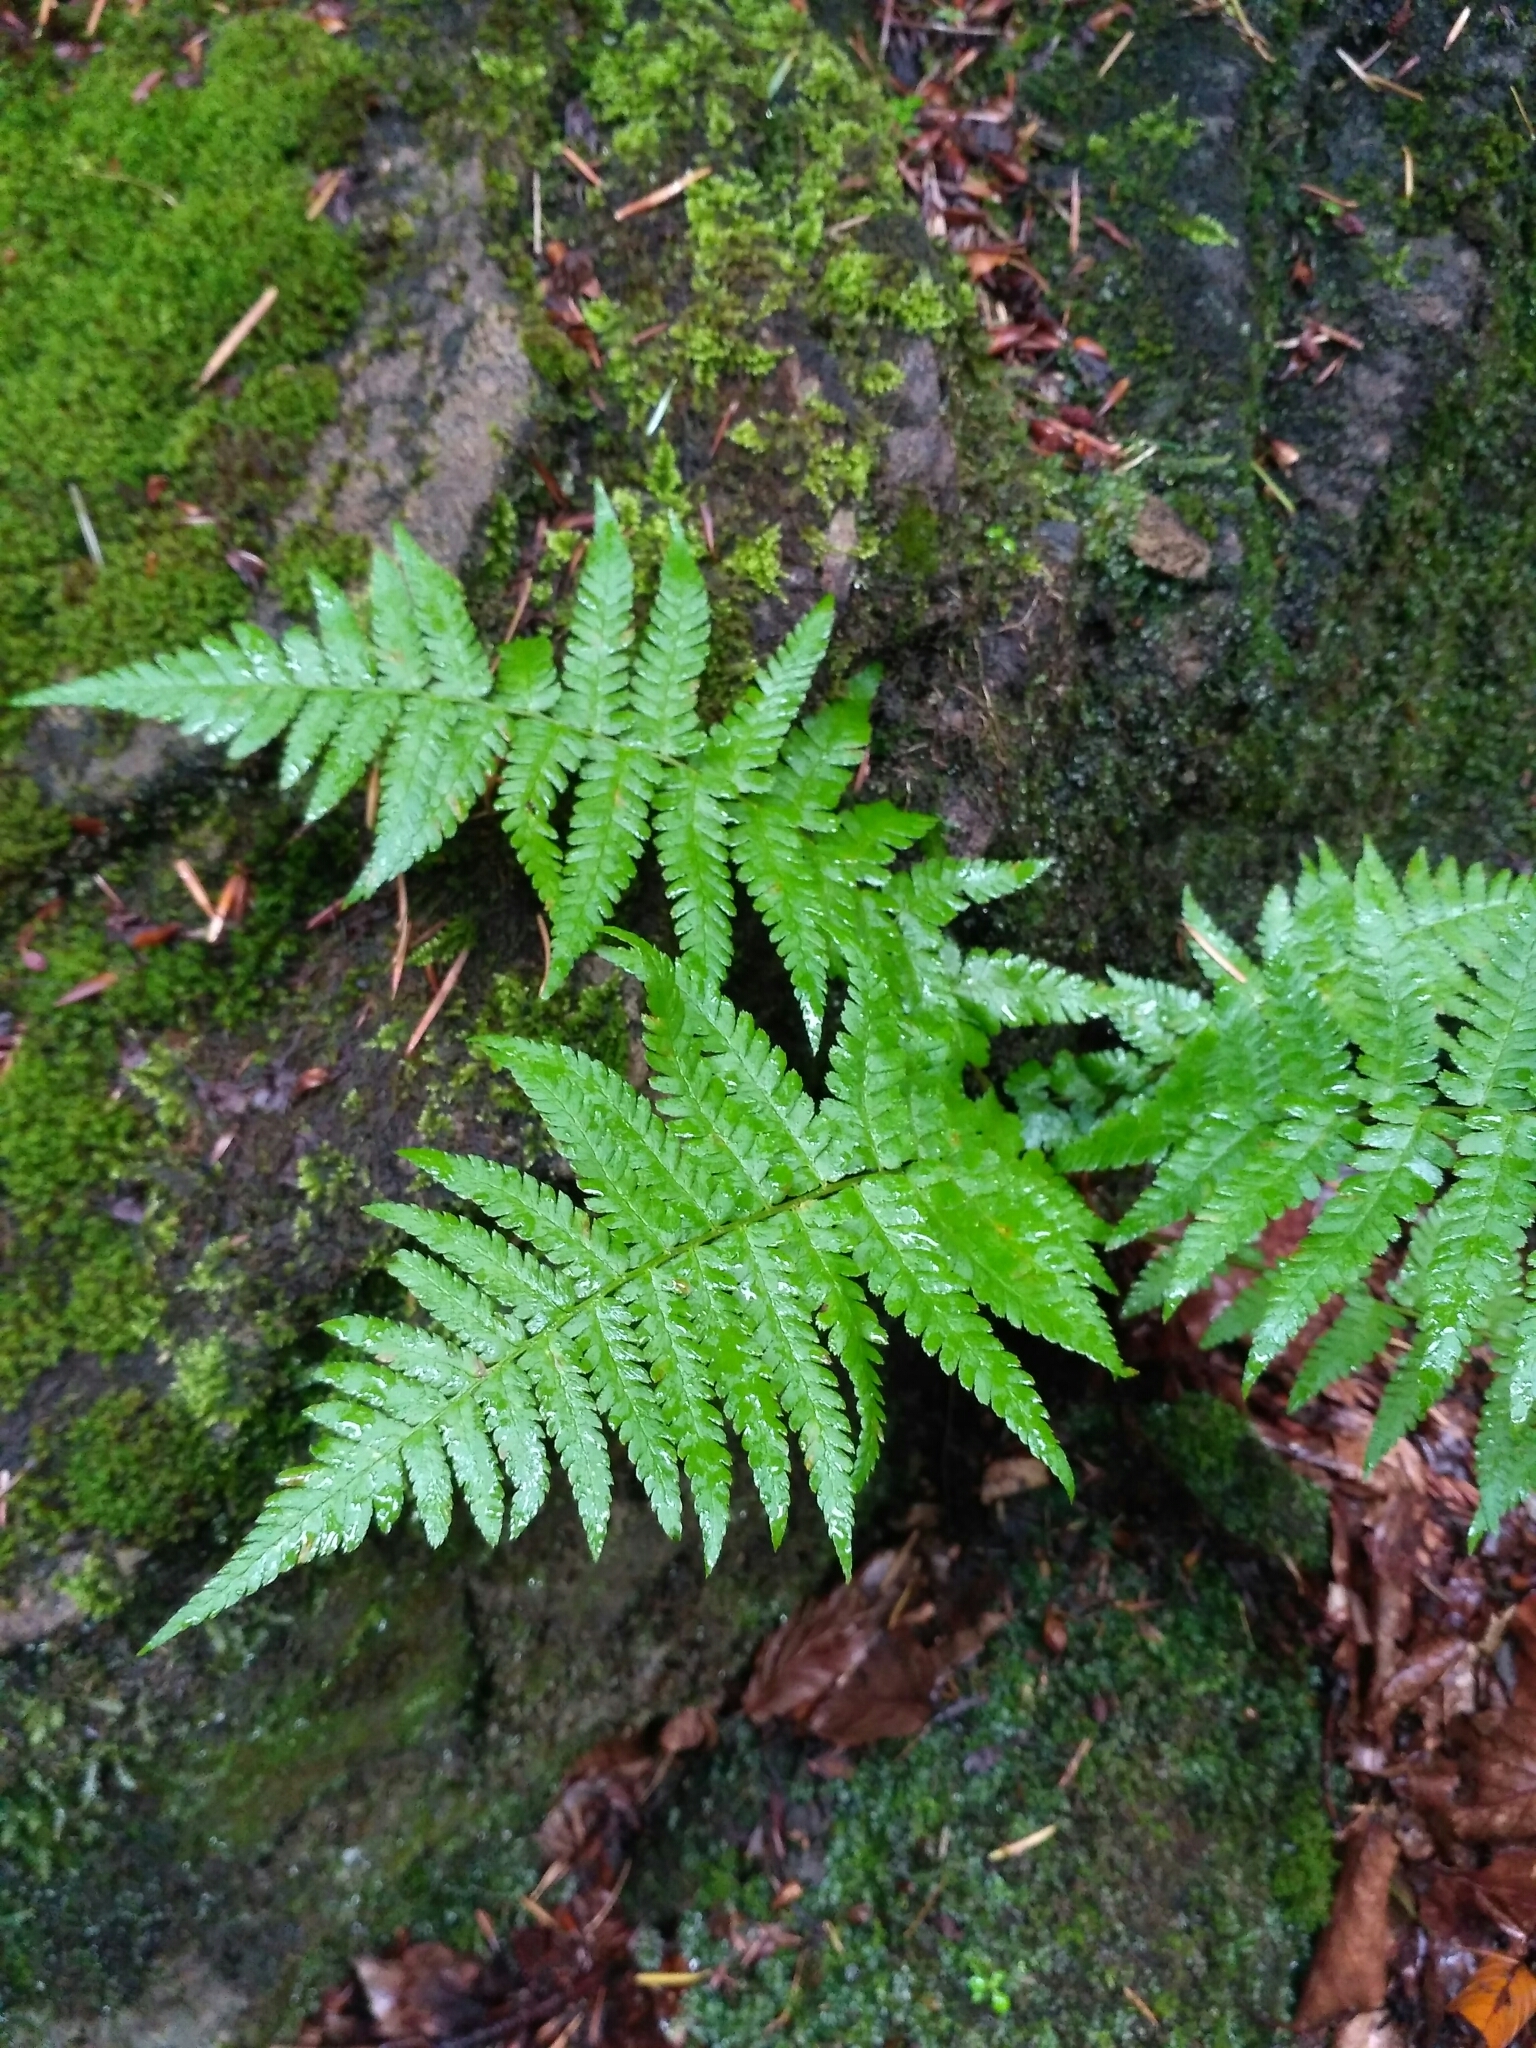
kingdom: Plantae
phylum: Tracheophyta
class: Polypodiopsida
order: Polypodiales
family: Dryopteridaceae
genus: Dryopteris
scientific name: Dryopteris filix-mas
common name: Male fern
